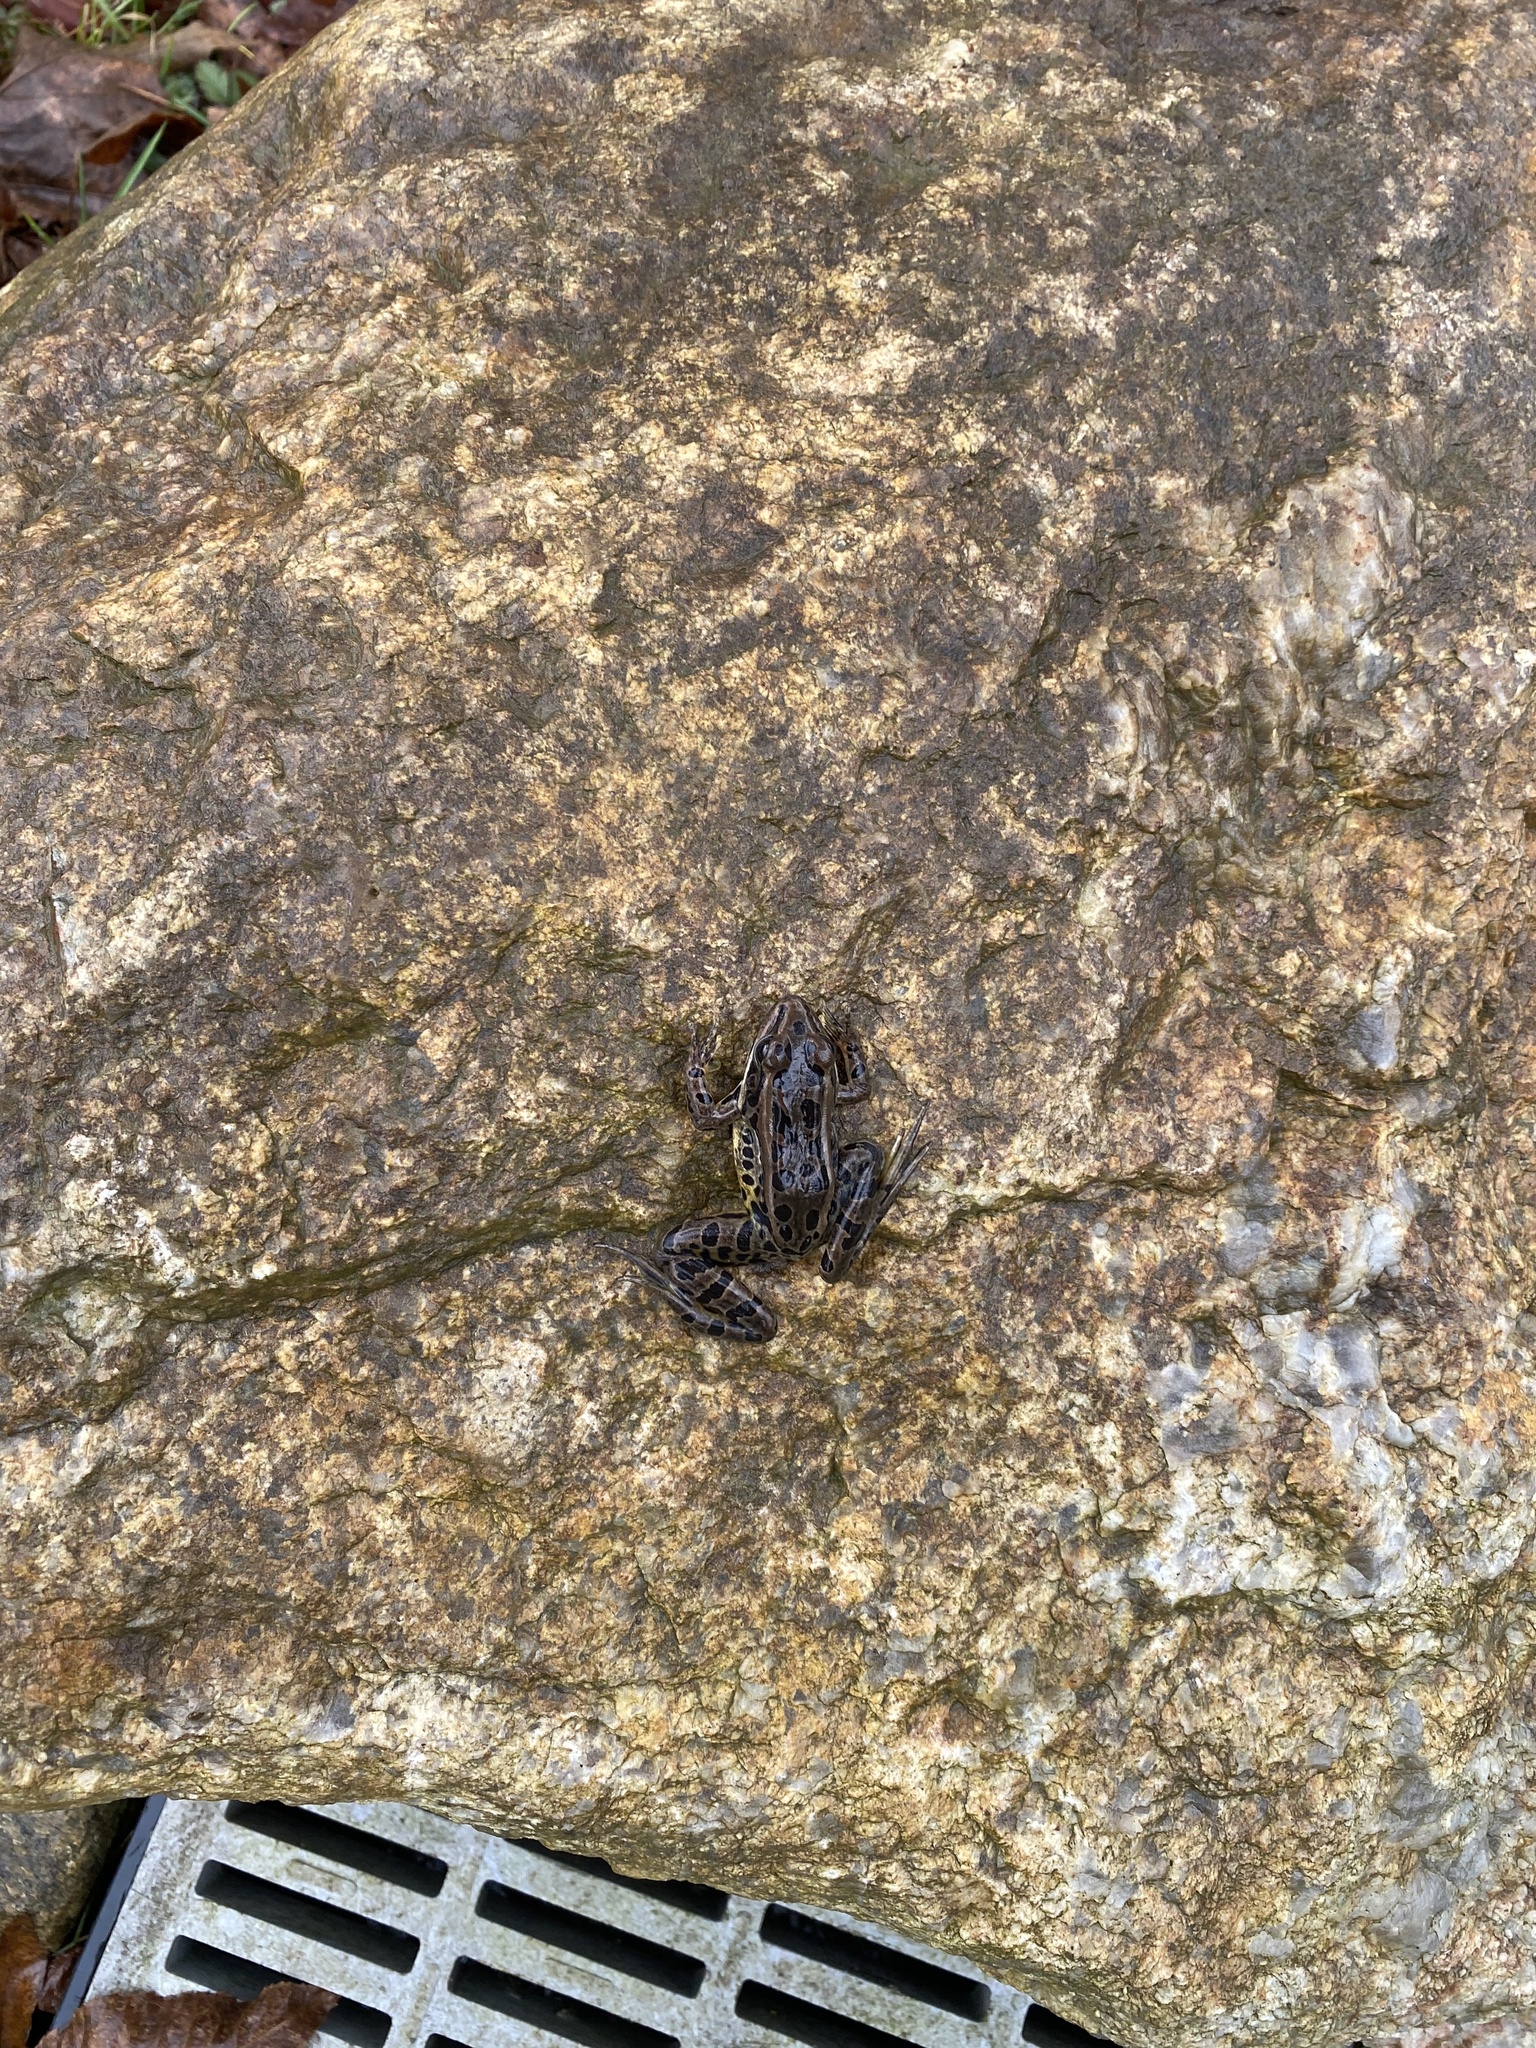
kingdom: Animalia
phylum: Chordata
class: Amphibia
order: Anura
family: Ranidae
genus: Lithobates
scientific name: Lithobates palustris
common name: Pickerel frog
